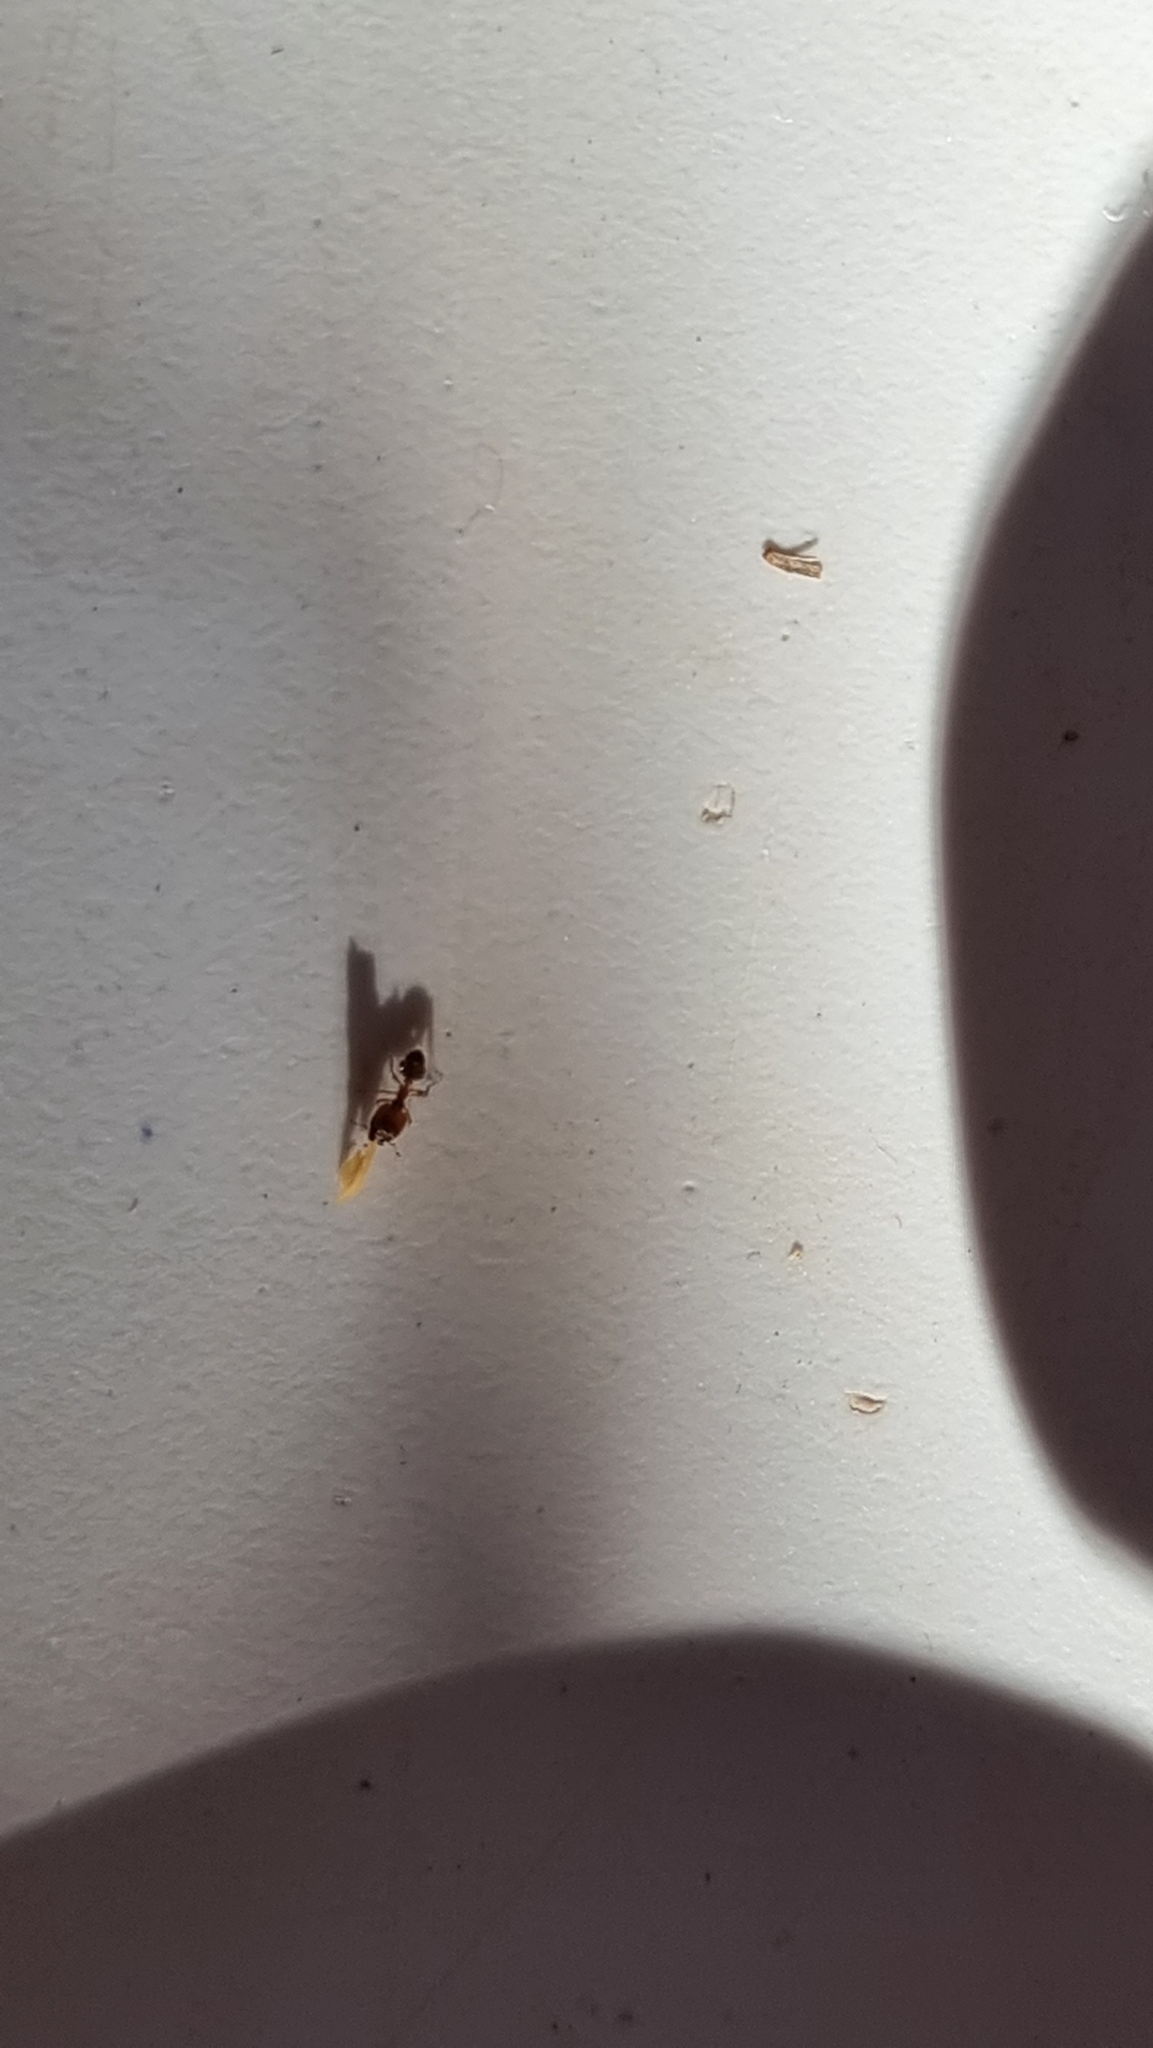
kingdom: Animalia
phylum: Arthropoda
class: Insecta
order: Hymenoptera
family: Formicidae
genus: Pheidole
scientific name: Pheidole pallidula
